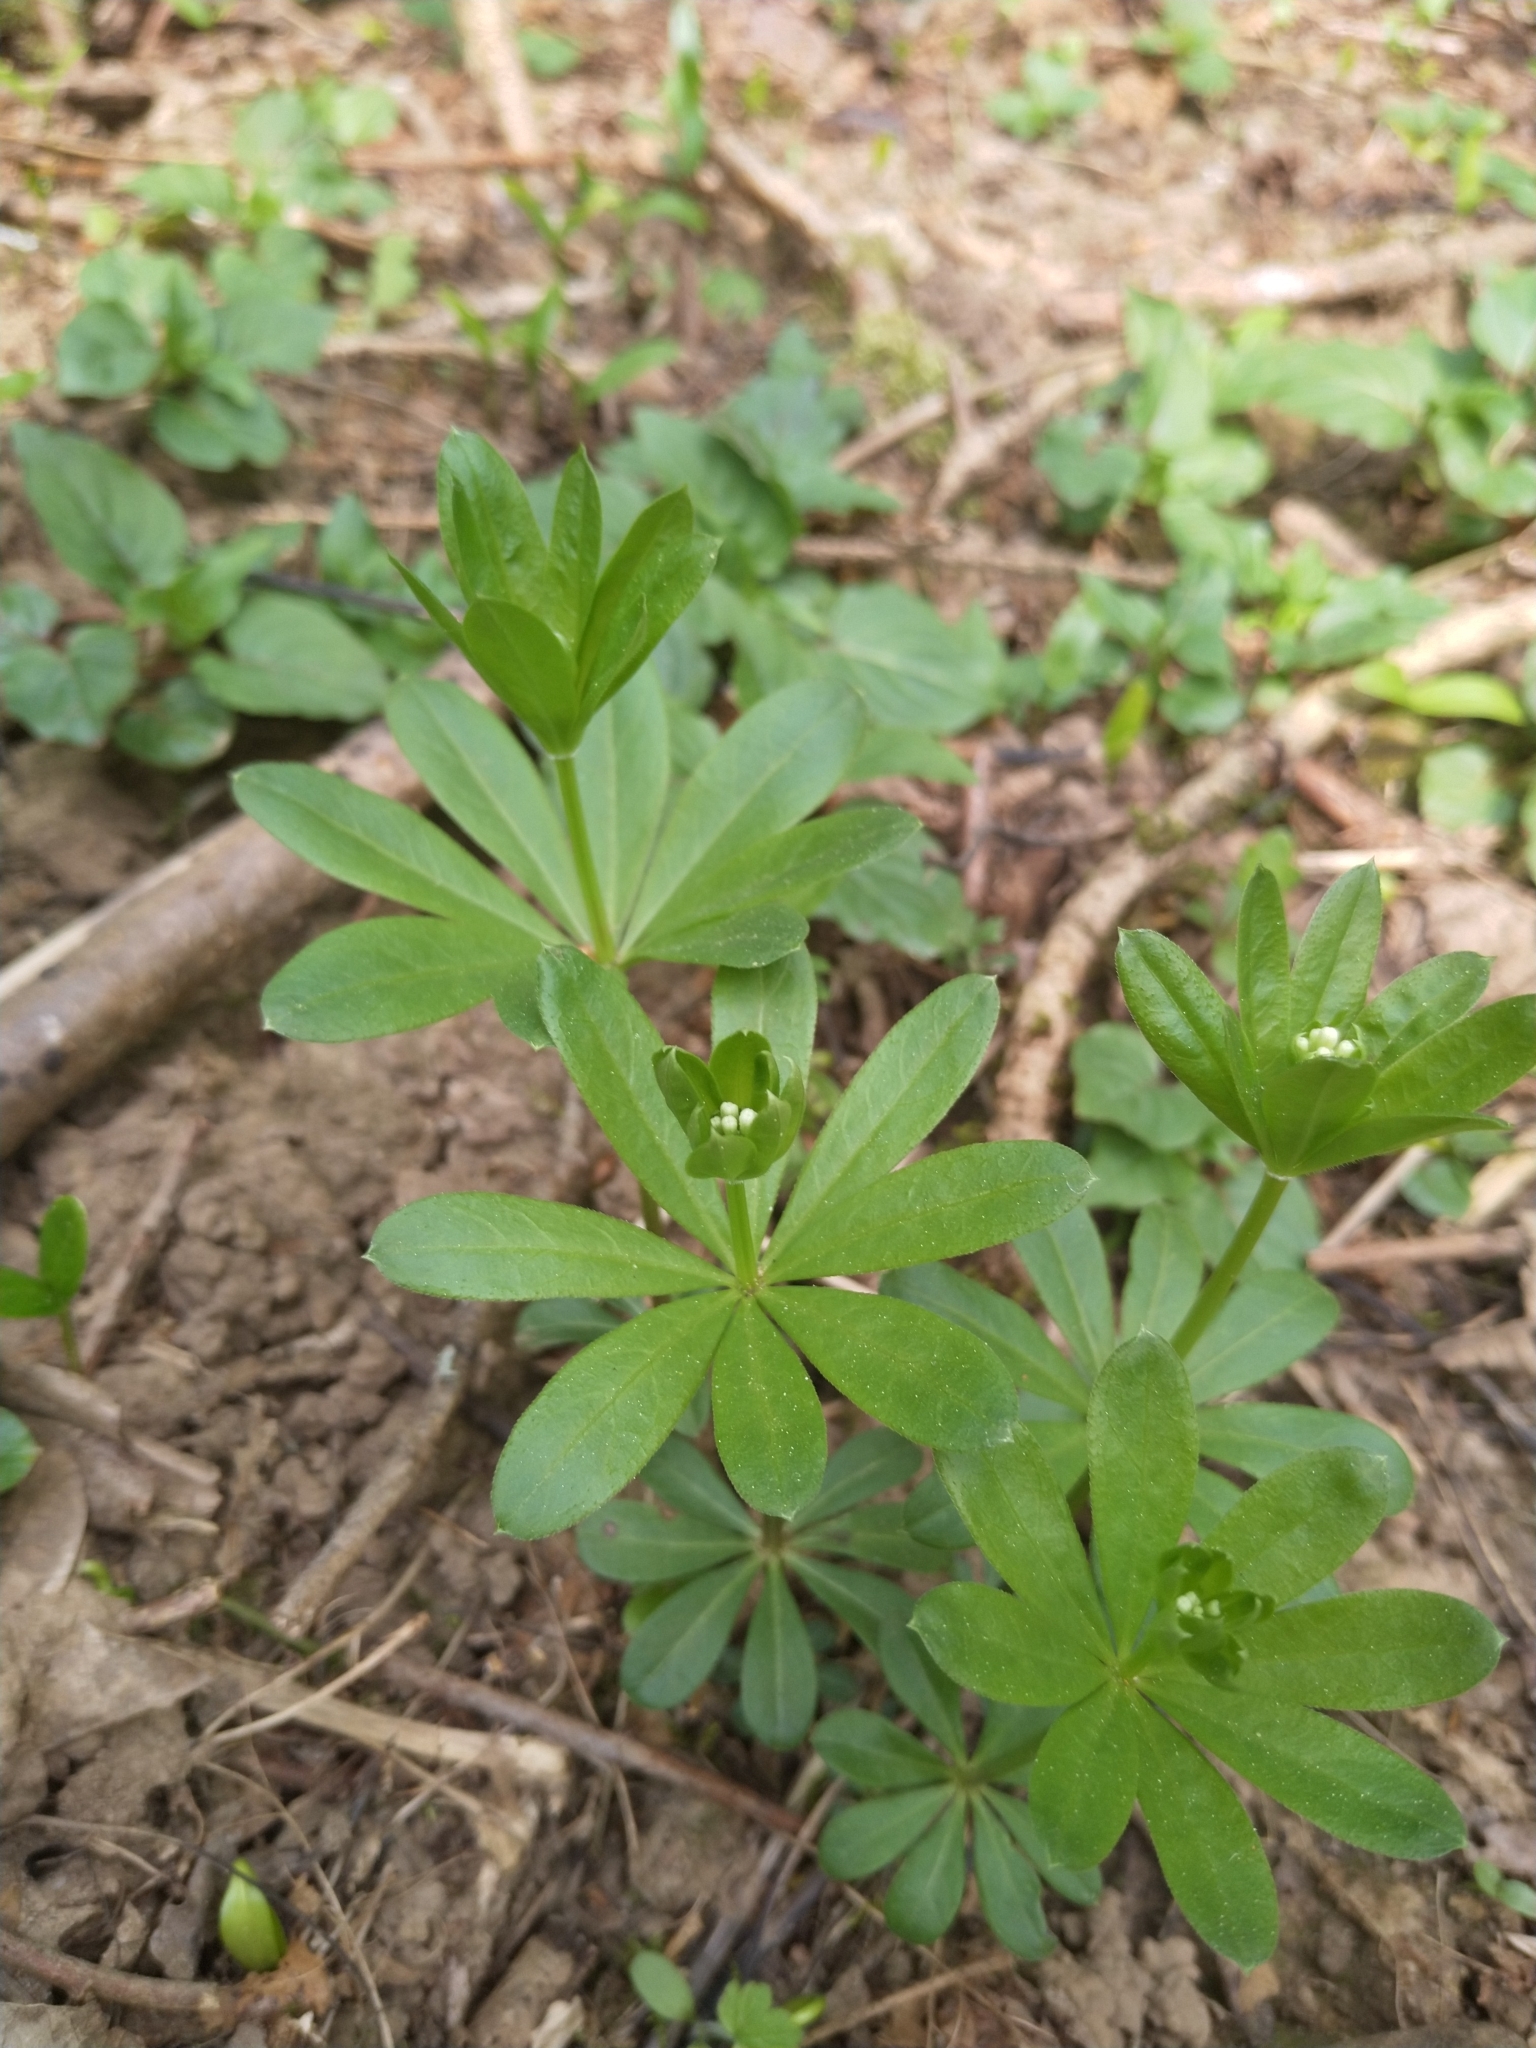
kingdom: Plantae
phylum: Tracheophyta
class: Magnoliopsida
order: Gentianales
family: Rubiaceae
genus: Galium
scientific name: Galium odoratum
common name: Sweet woodruff
